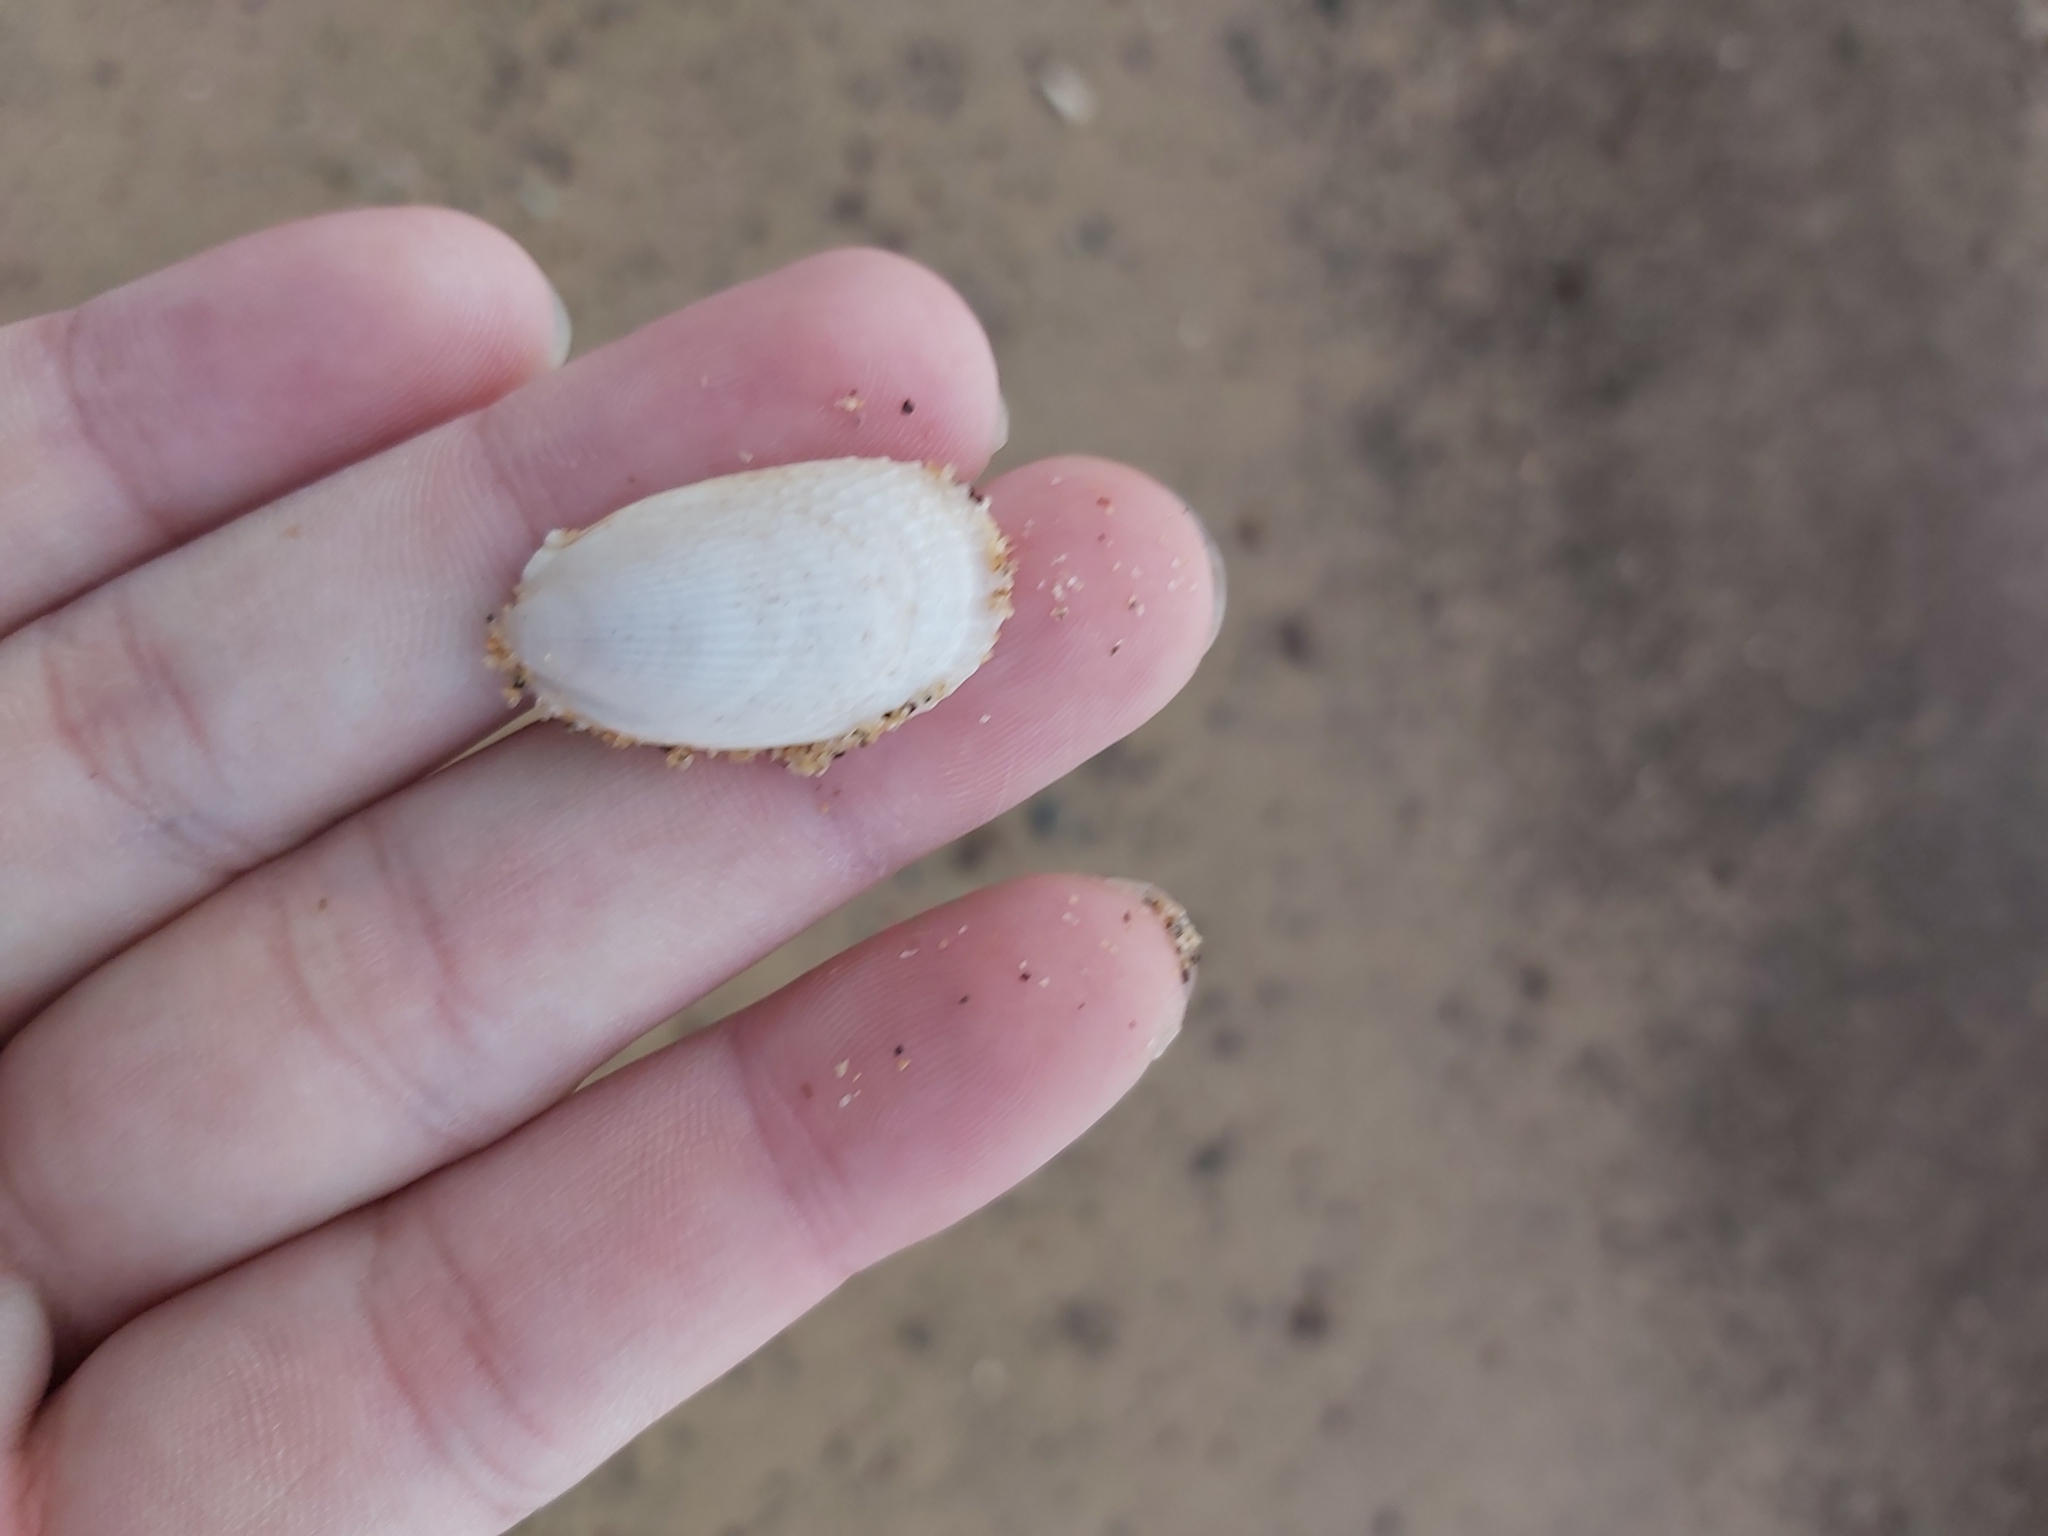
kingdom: Animalia
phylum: Mollusca
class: Bivalvia
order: Limida
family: Limidae
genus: Limatula
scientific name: Limatula strangei
